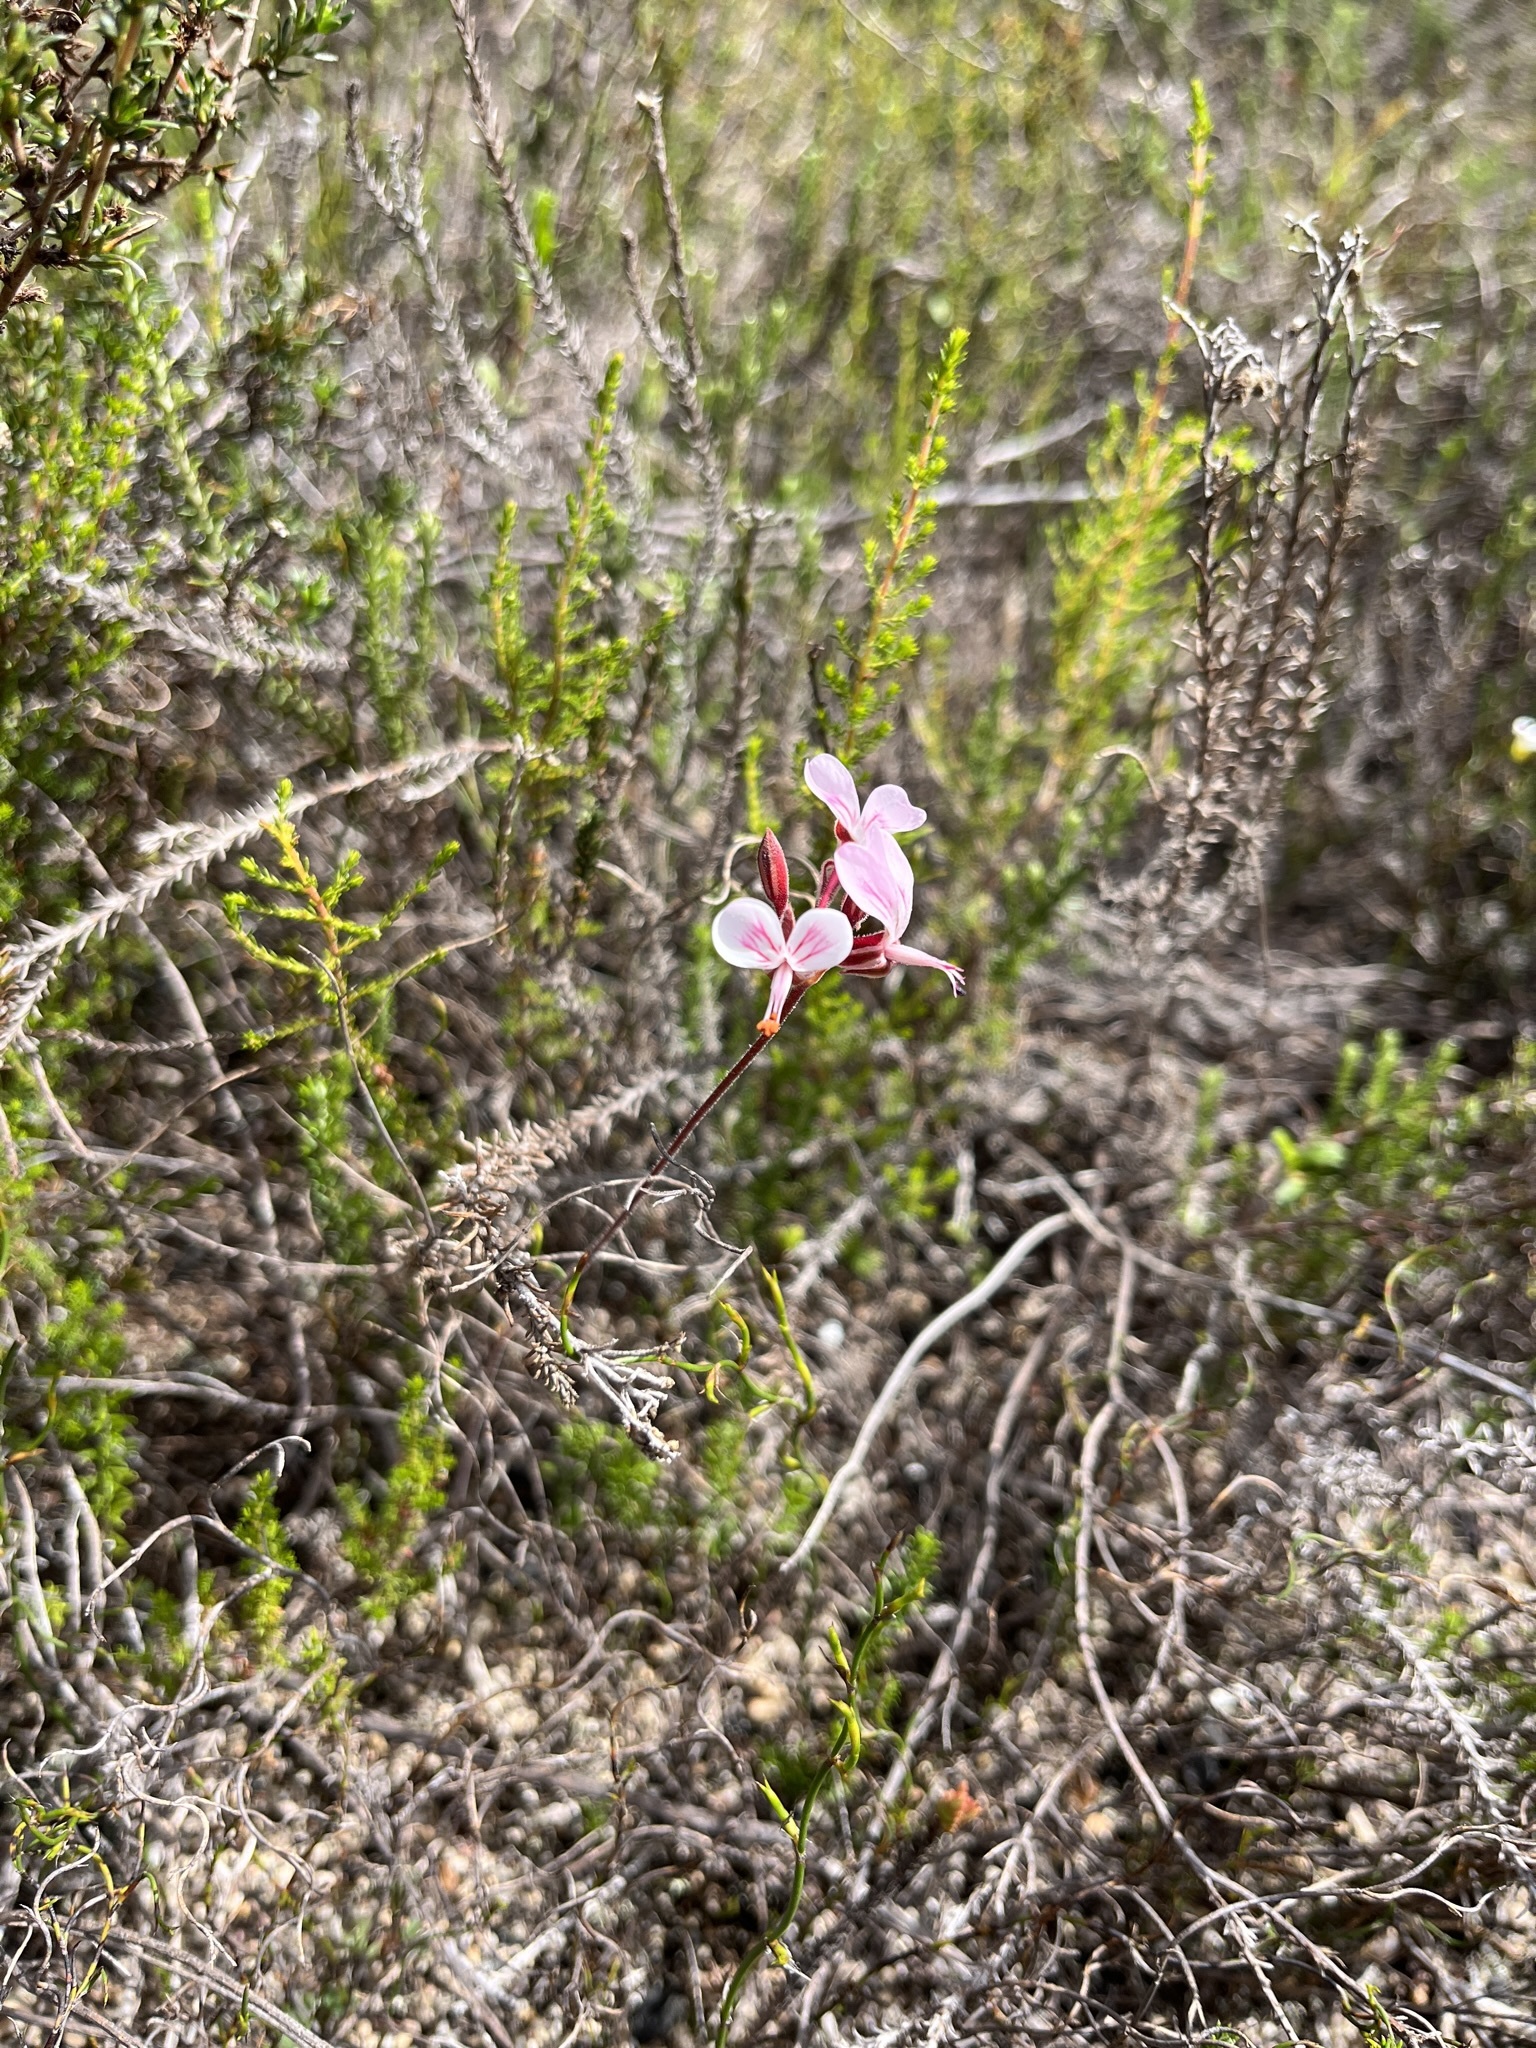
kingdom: Plantae
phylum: Tracheophyta
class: Magnoliopsida
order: Geraniales
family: Geraniaceae
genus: Pelargonium
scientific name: Pelargonium dipetalum
